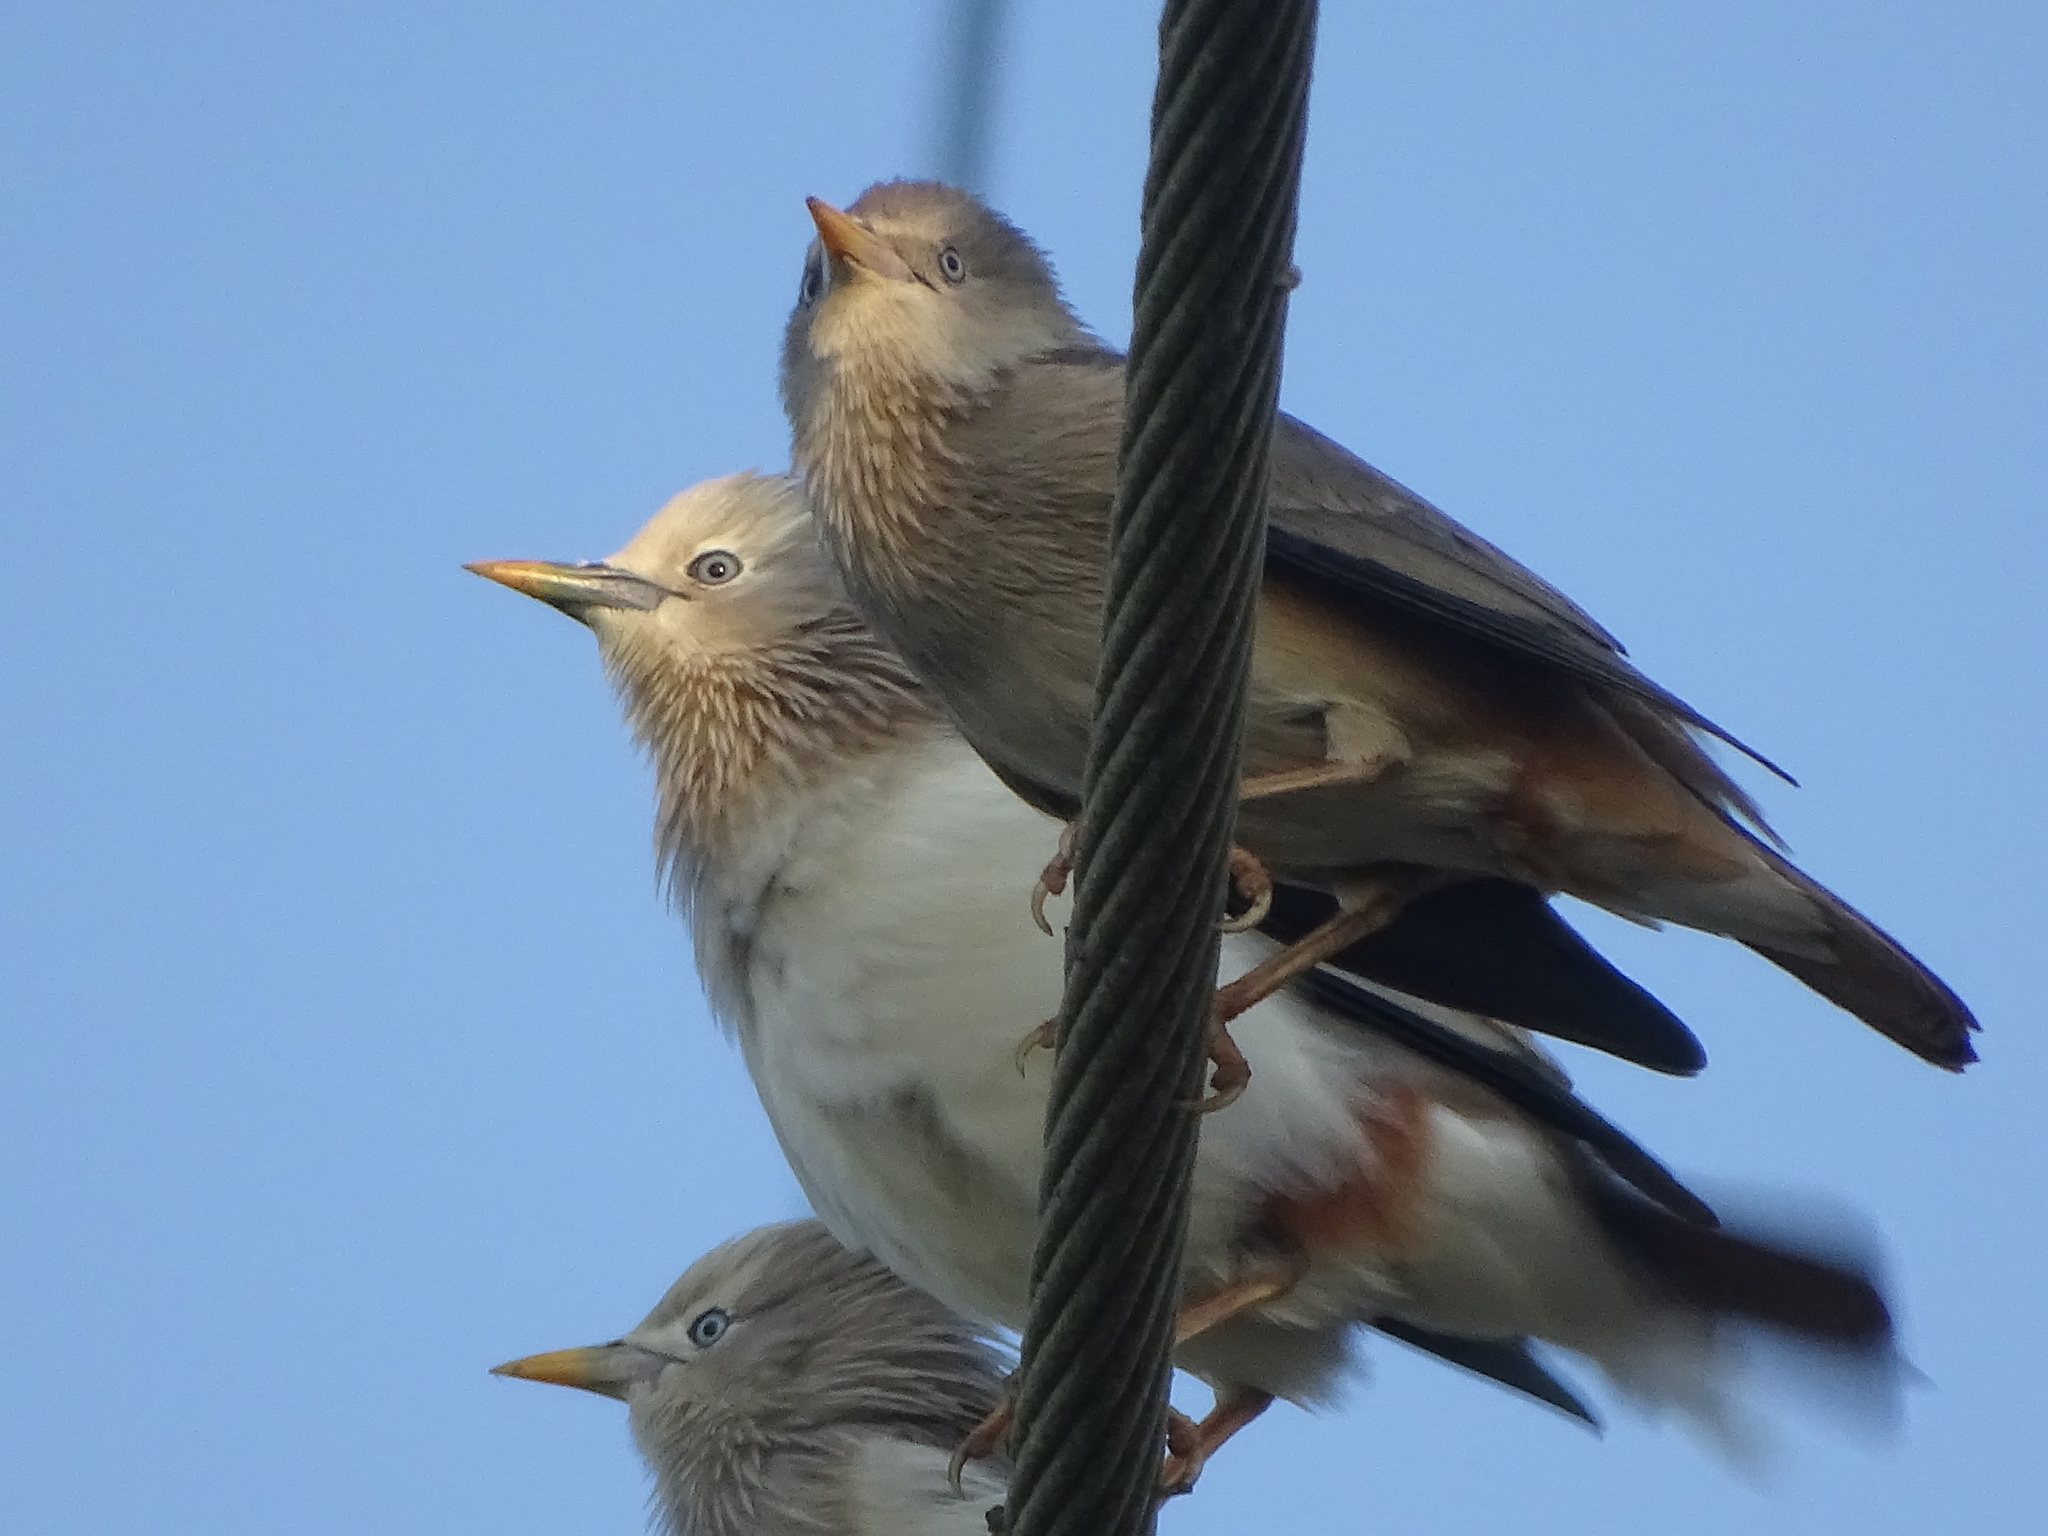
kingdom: Animalia
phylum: Chordata
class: Aves
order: Passeriformes
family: Sturnidae
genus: Sturnia
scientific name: Sturnia malabarica
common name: Chestnut-tailed starling
